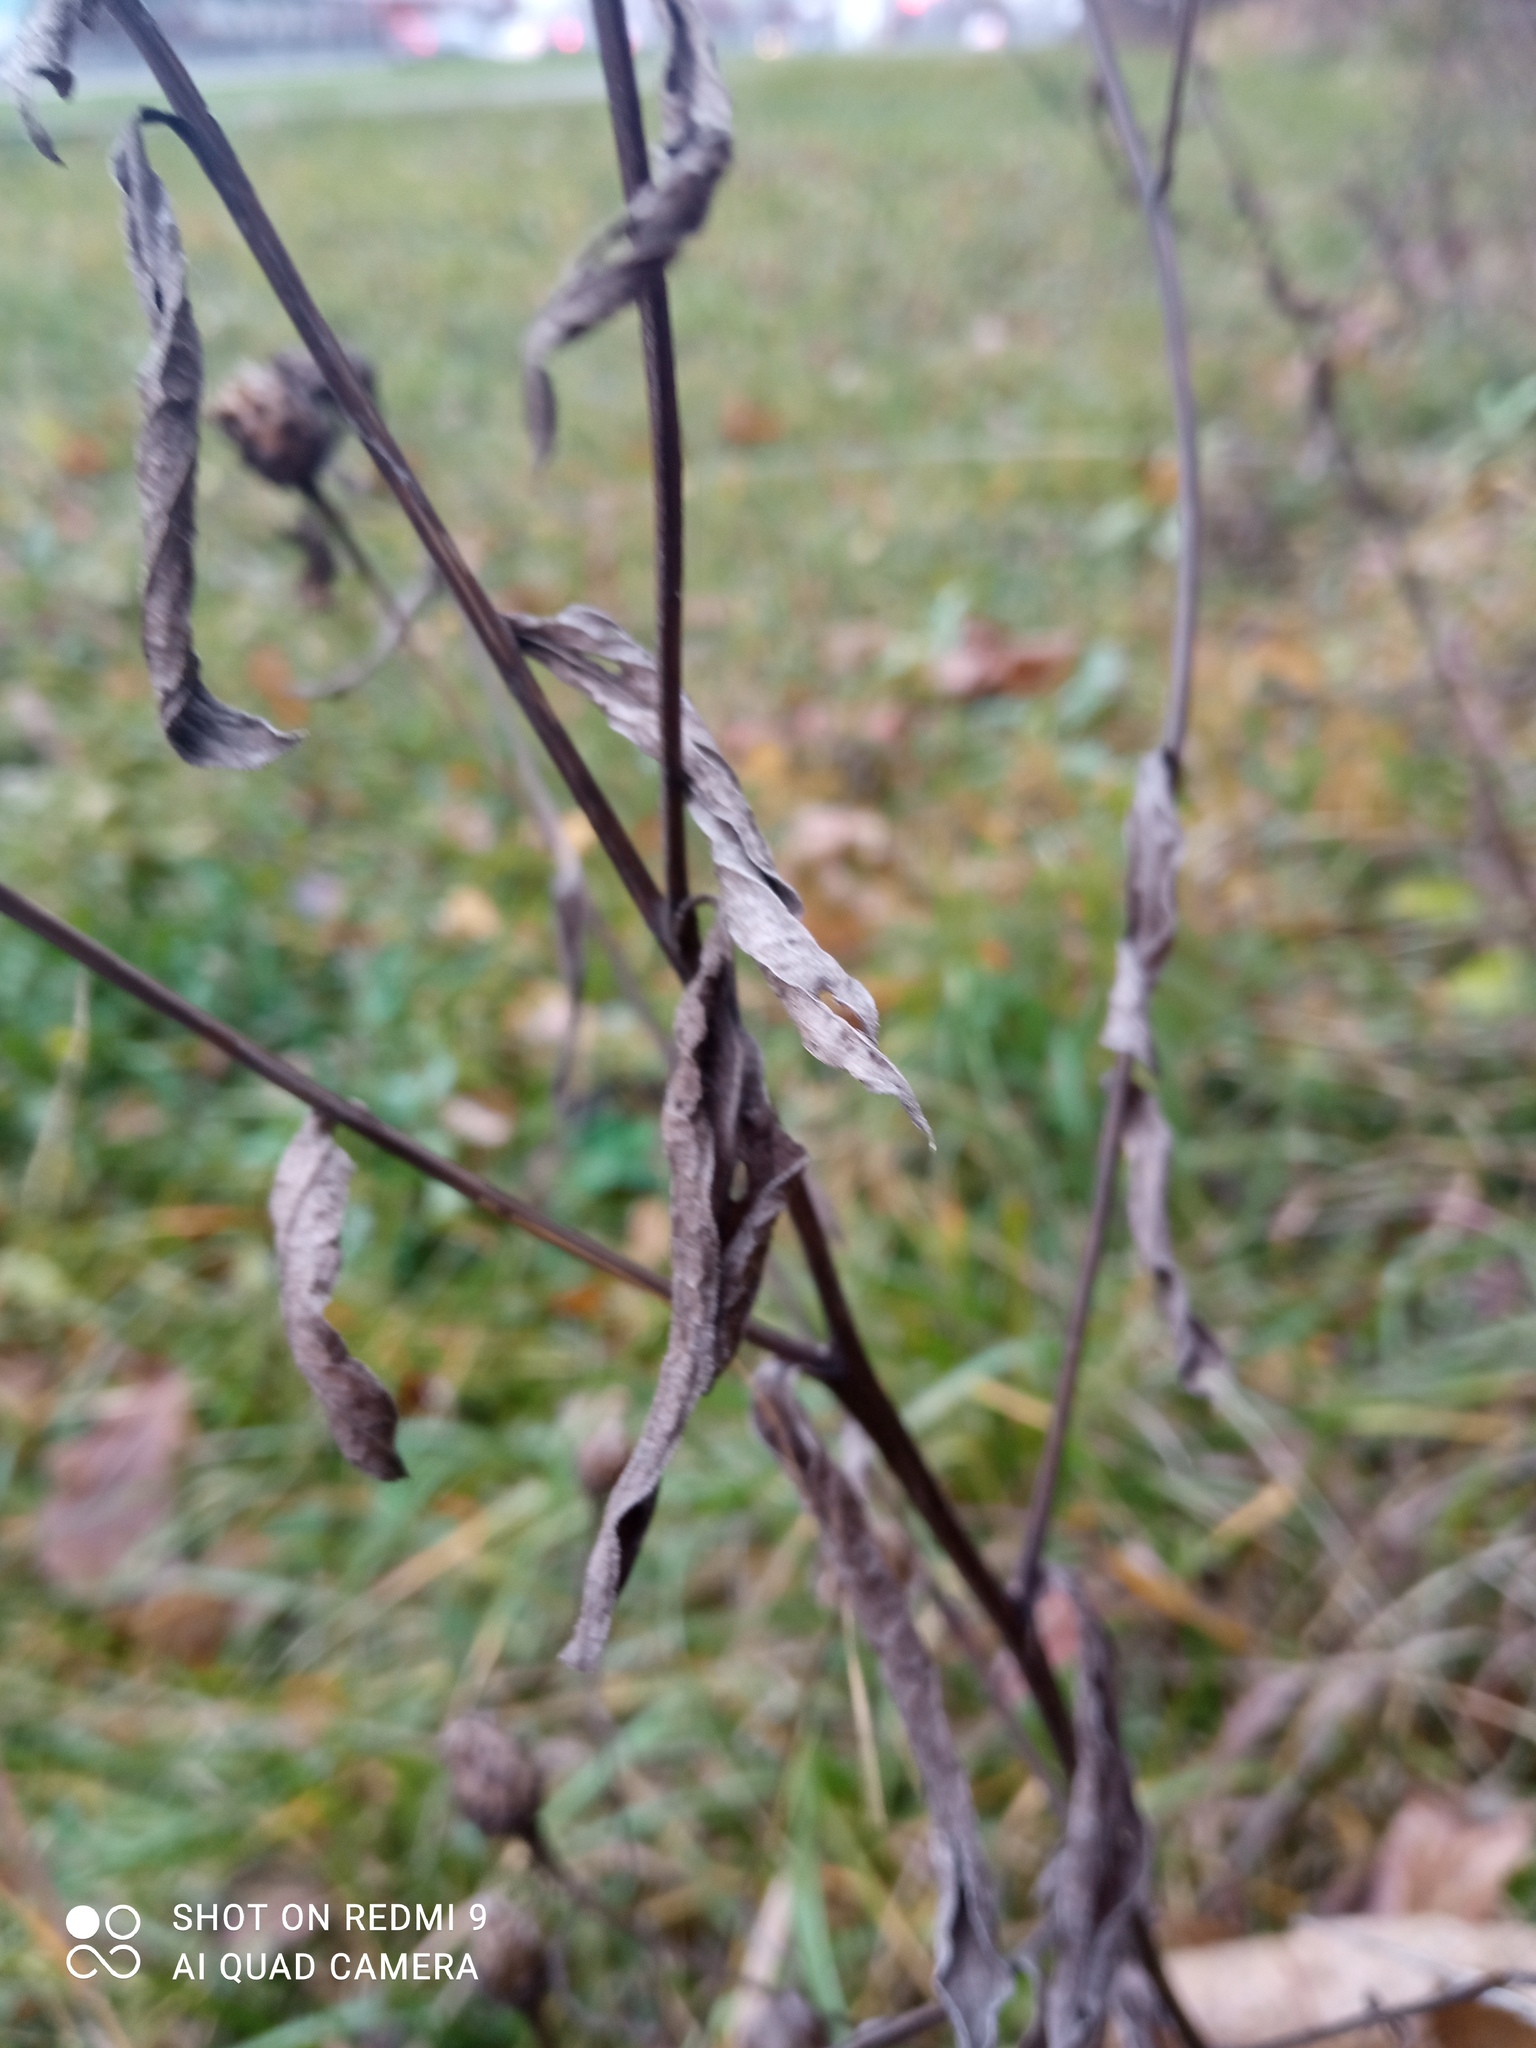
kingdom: Plantae
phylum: Tracheophyta
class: Magnoliopsida
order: Asterales
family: Asteraceae
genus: Centaurea
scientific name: Centaurea jacea
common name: Brown knapweed
